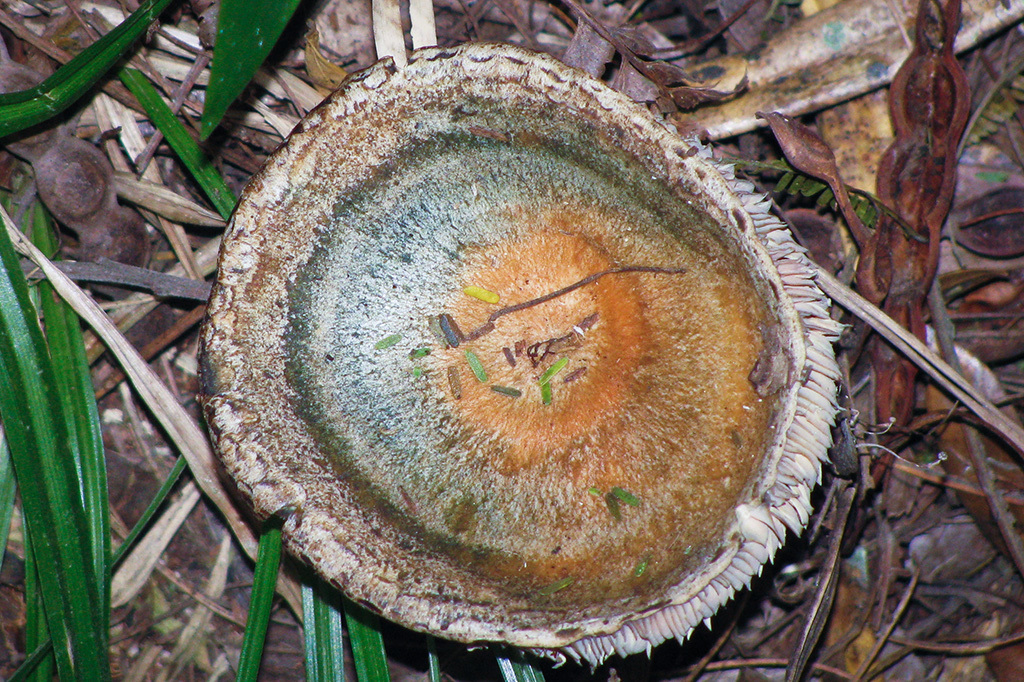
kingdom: Fungi
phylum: Basidiomycota
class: Agaricomycetes
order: Russulales
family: Russulaceae
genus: Lactarius
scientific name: Lactarius deliciosus
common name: Saffron milk-cap
